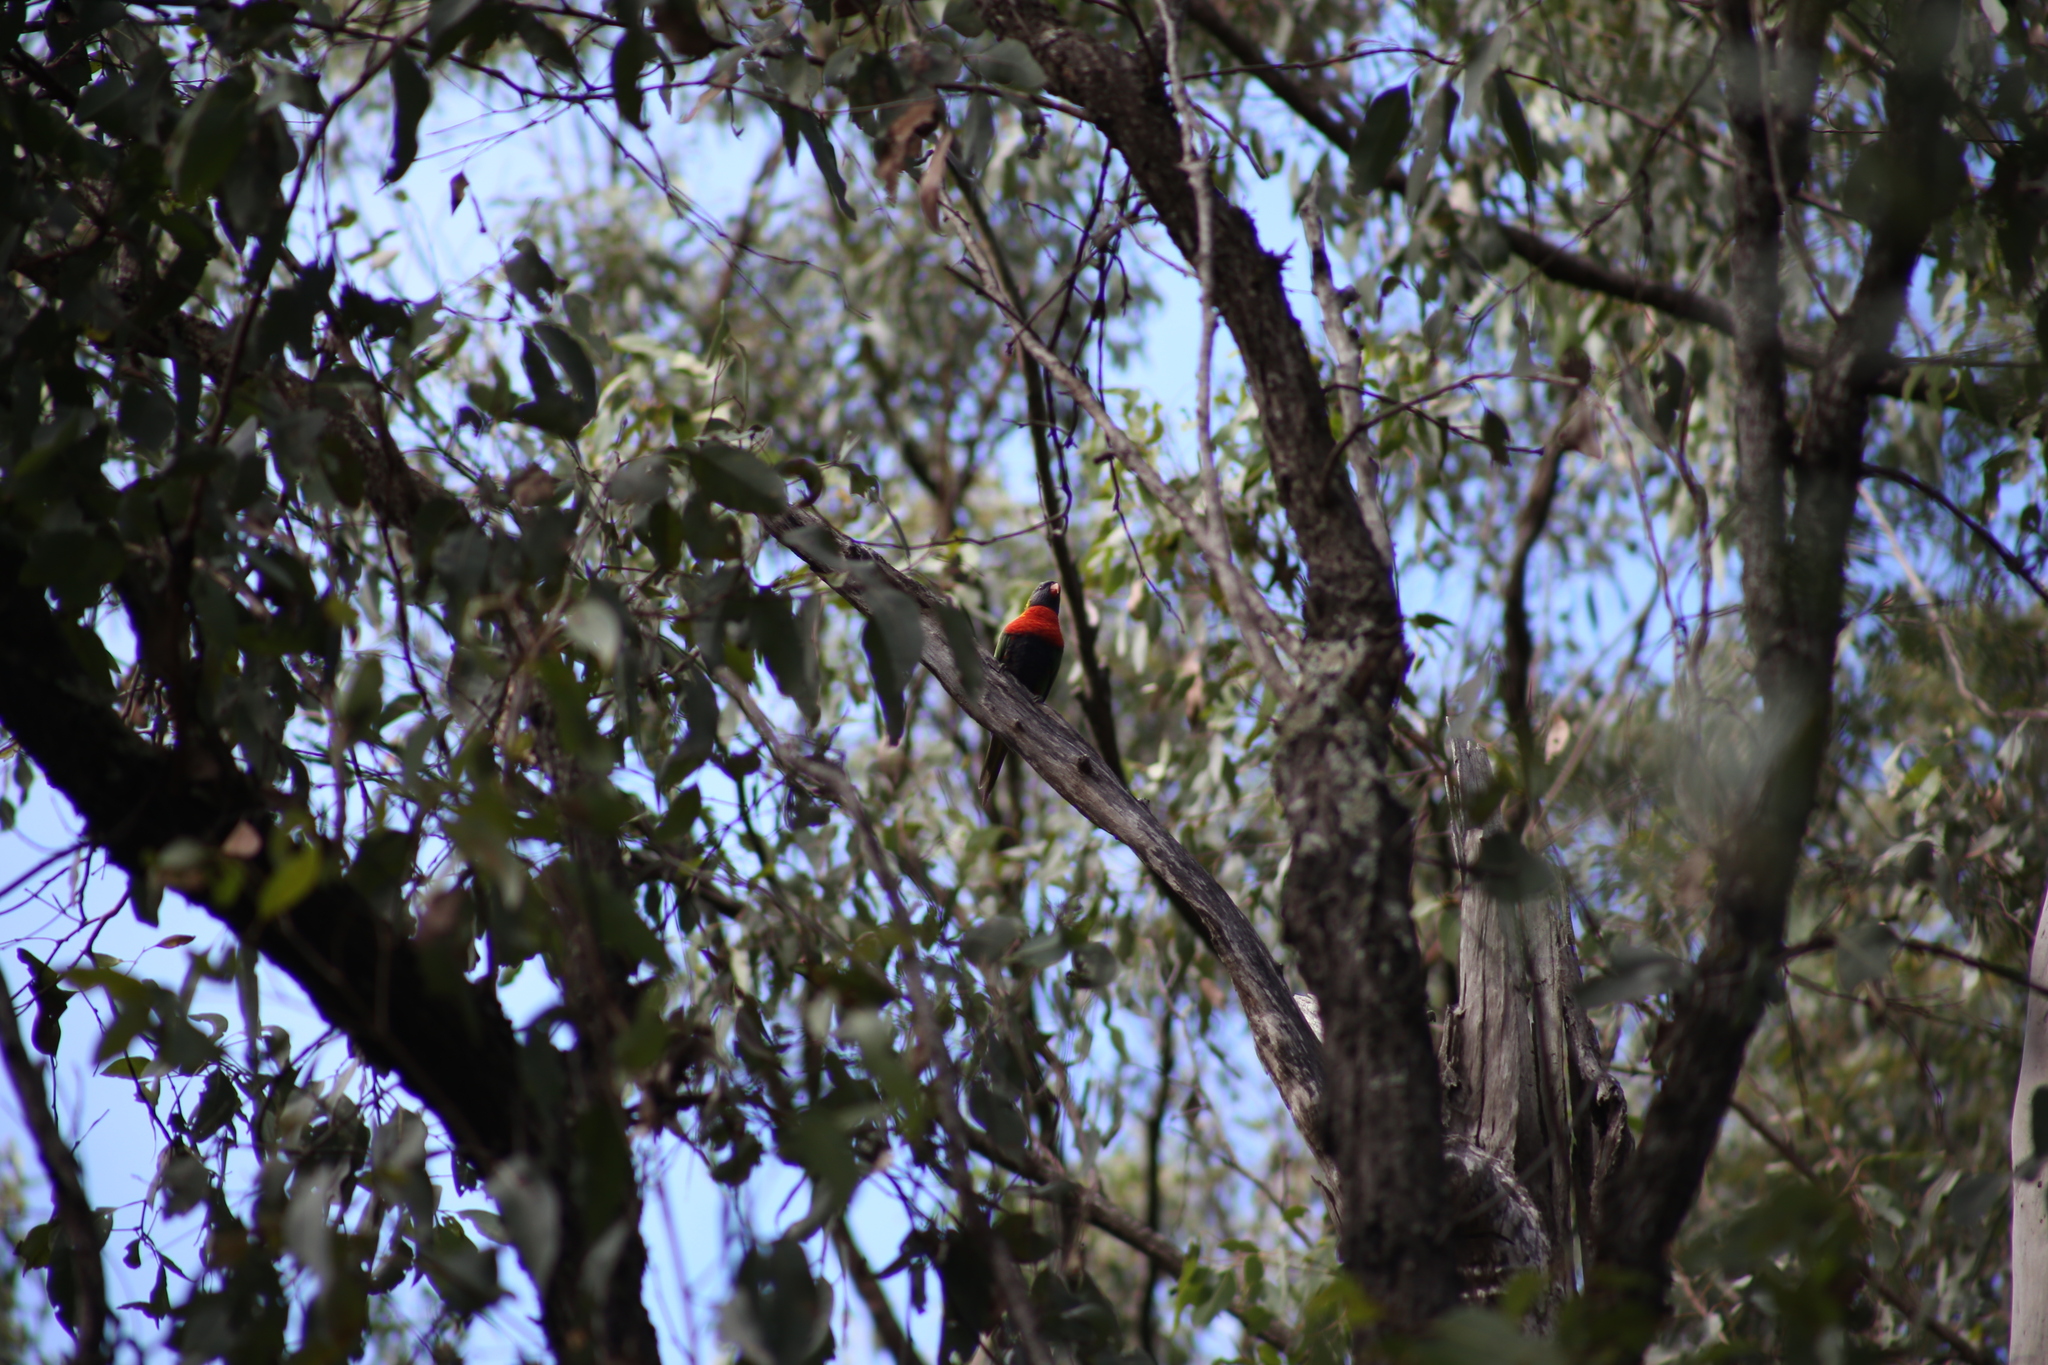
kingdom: Animalia
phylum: Chordata
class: Aves
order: Psittaciformes
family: Psittacidae
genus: Trichoglossus
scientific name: Trichoglossus haematodus
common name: Coconut lorikeet
